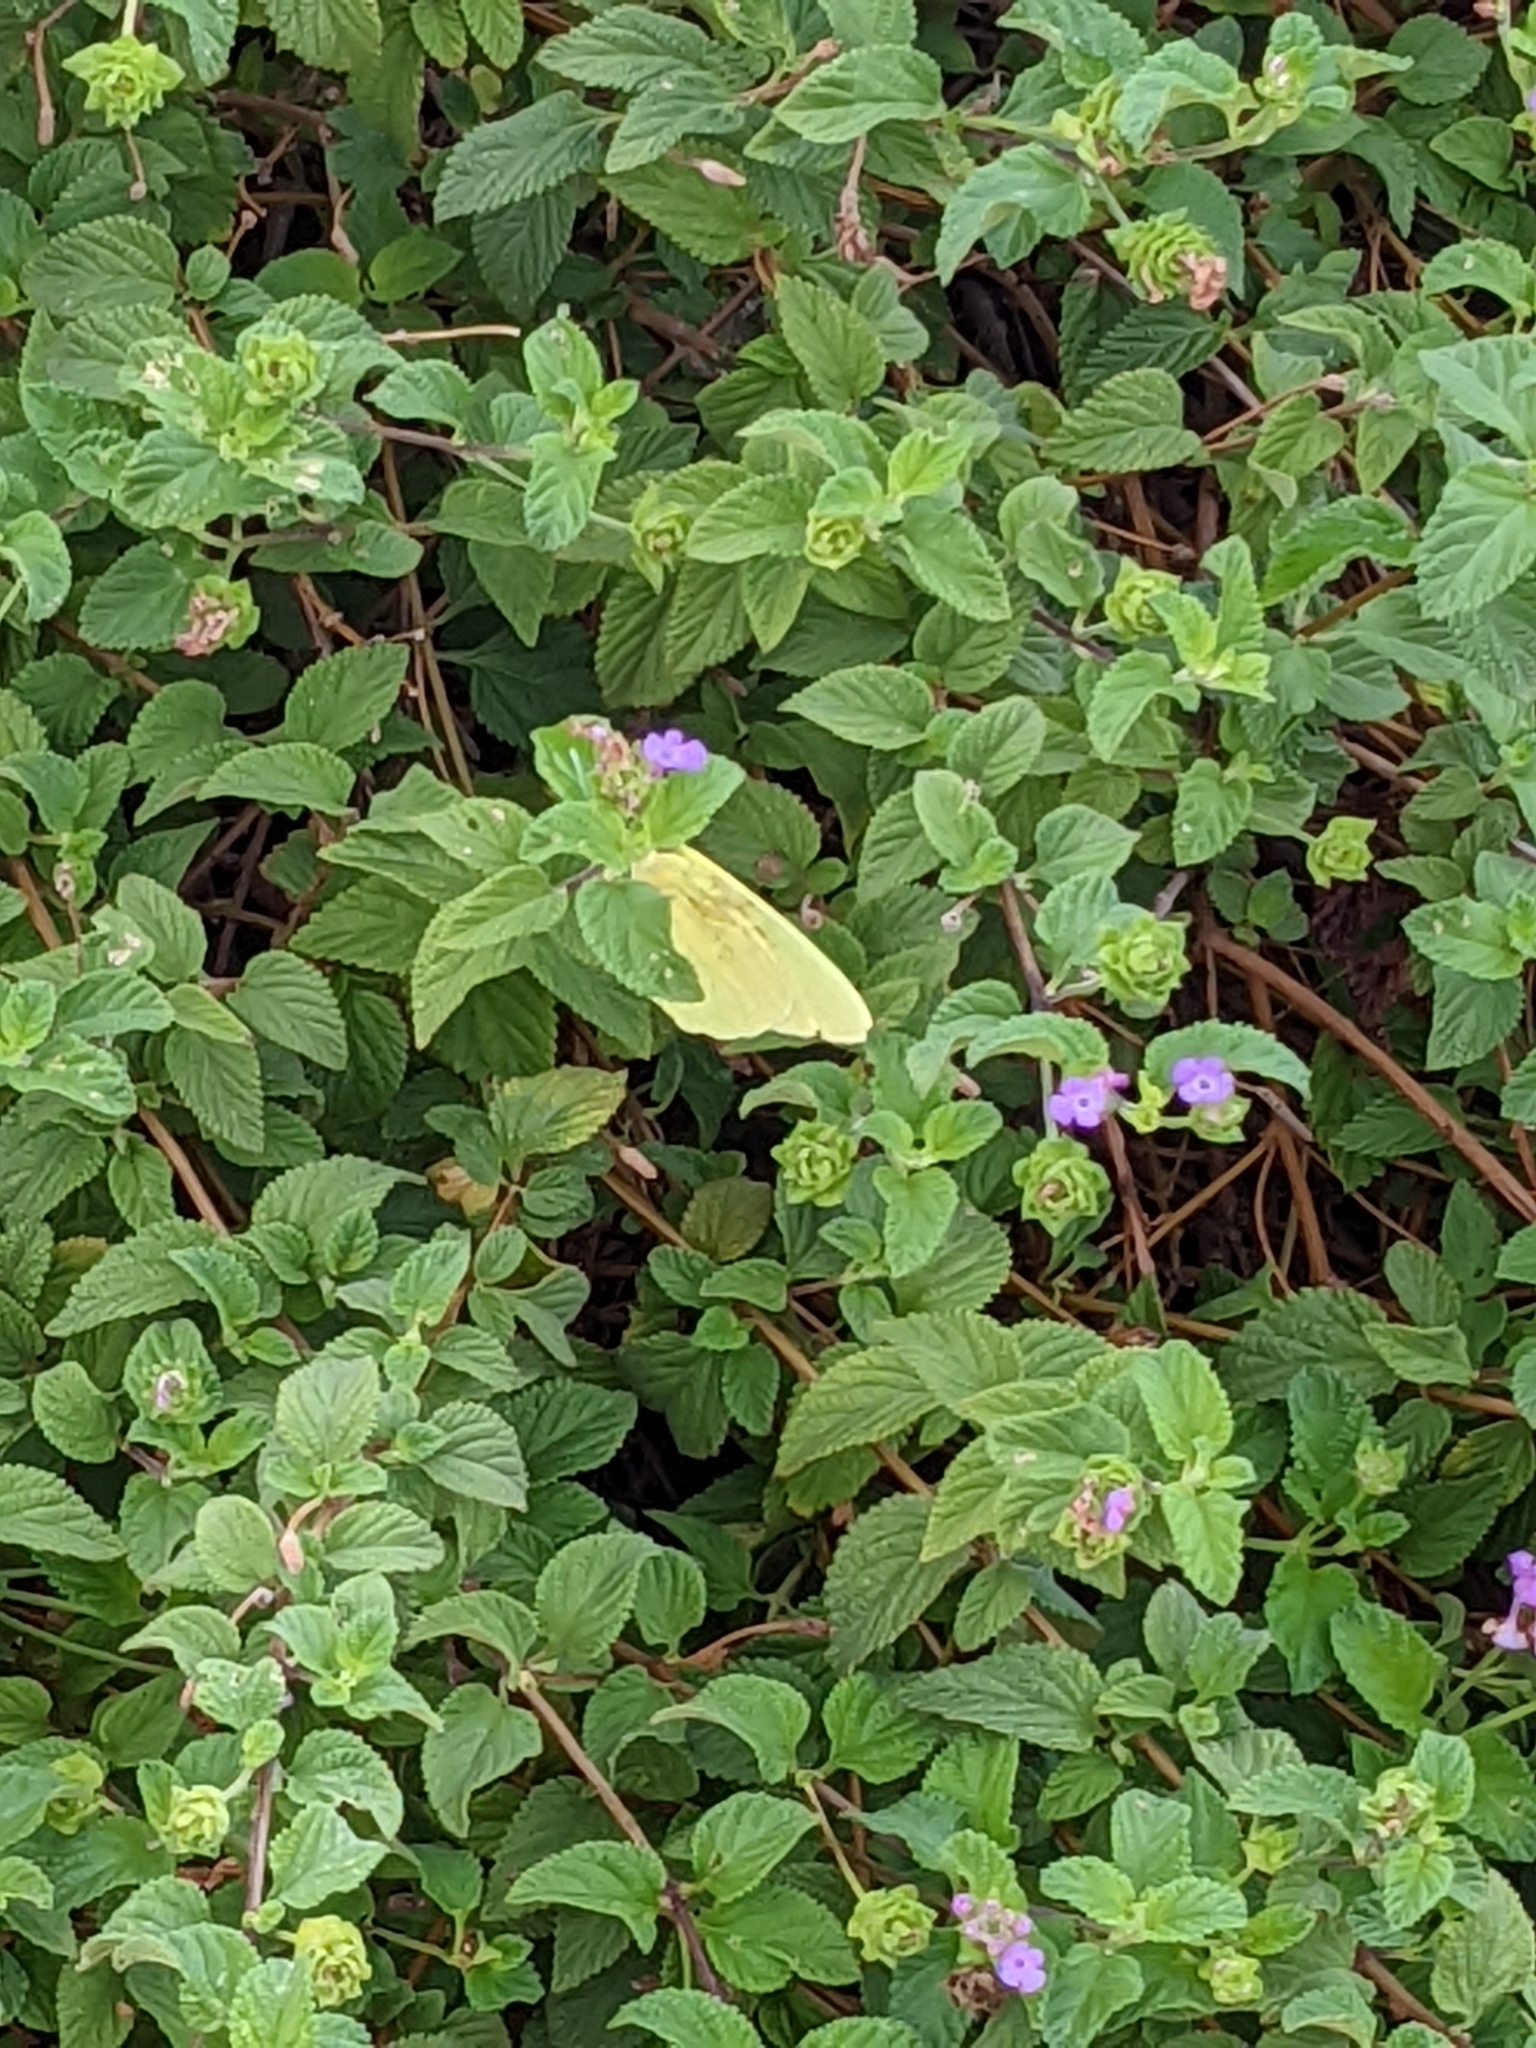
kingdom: Animalia
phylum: Arthropoda
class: Insecta
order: Lepidoptera
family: Pieridae
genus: Phoebis
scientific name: Phoebis sennae
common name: Cloudless sulphur
